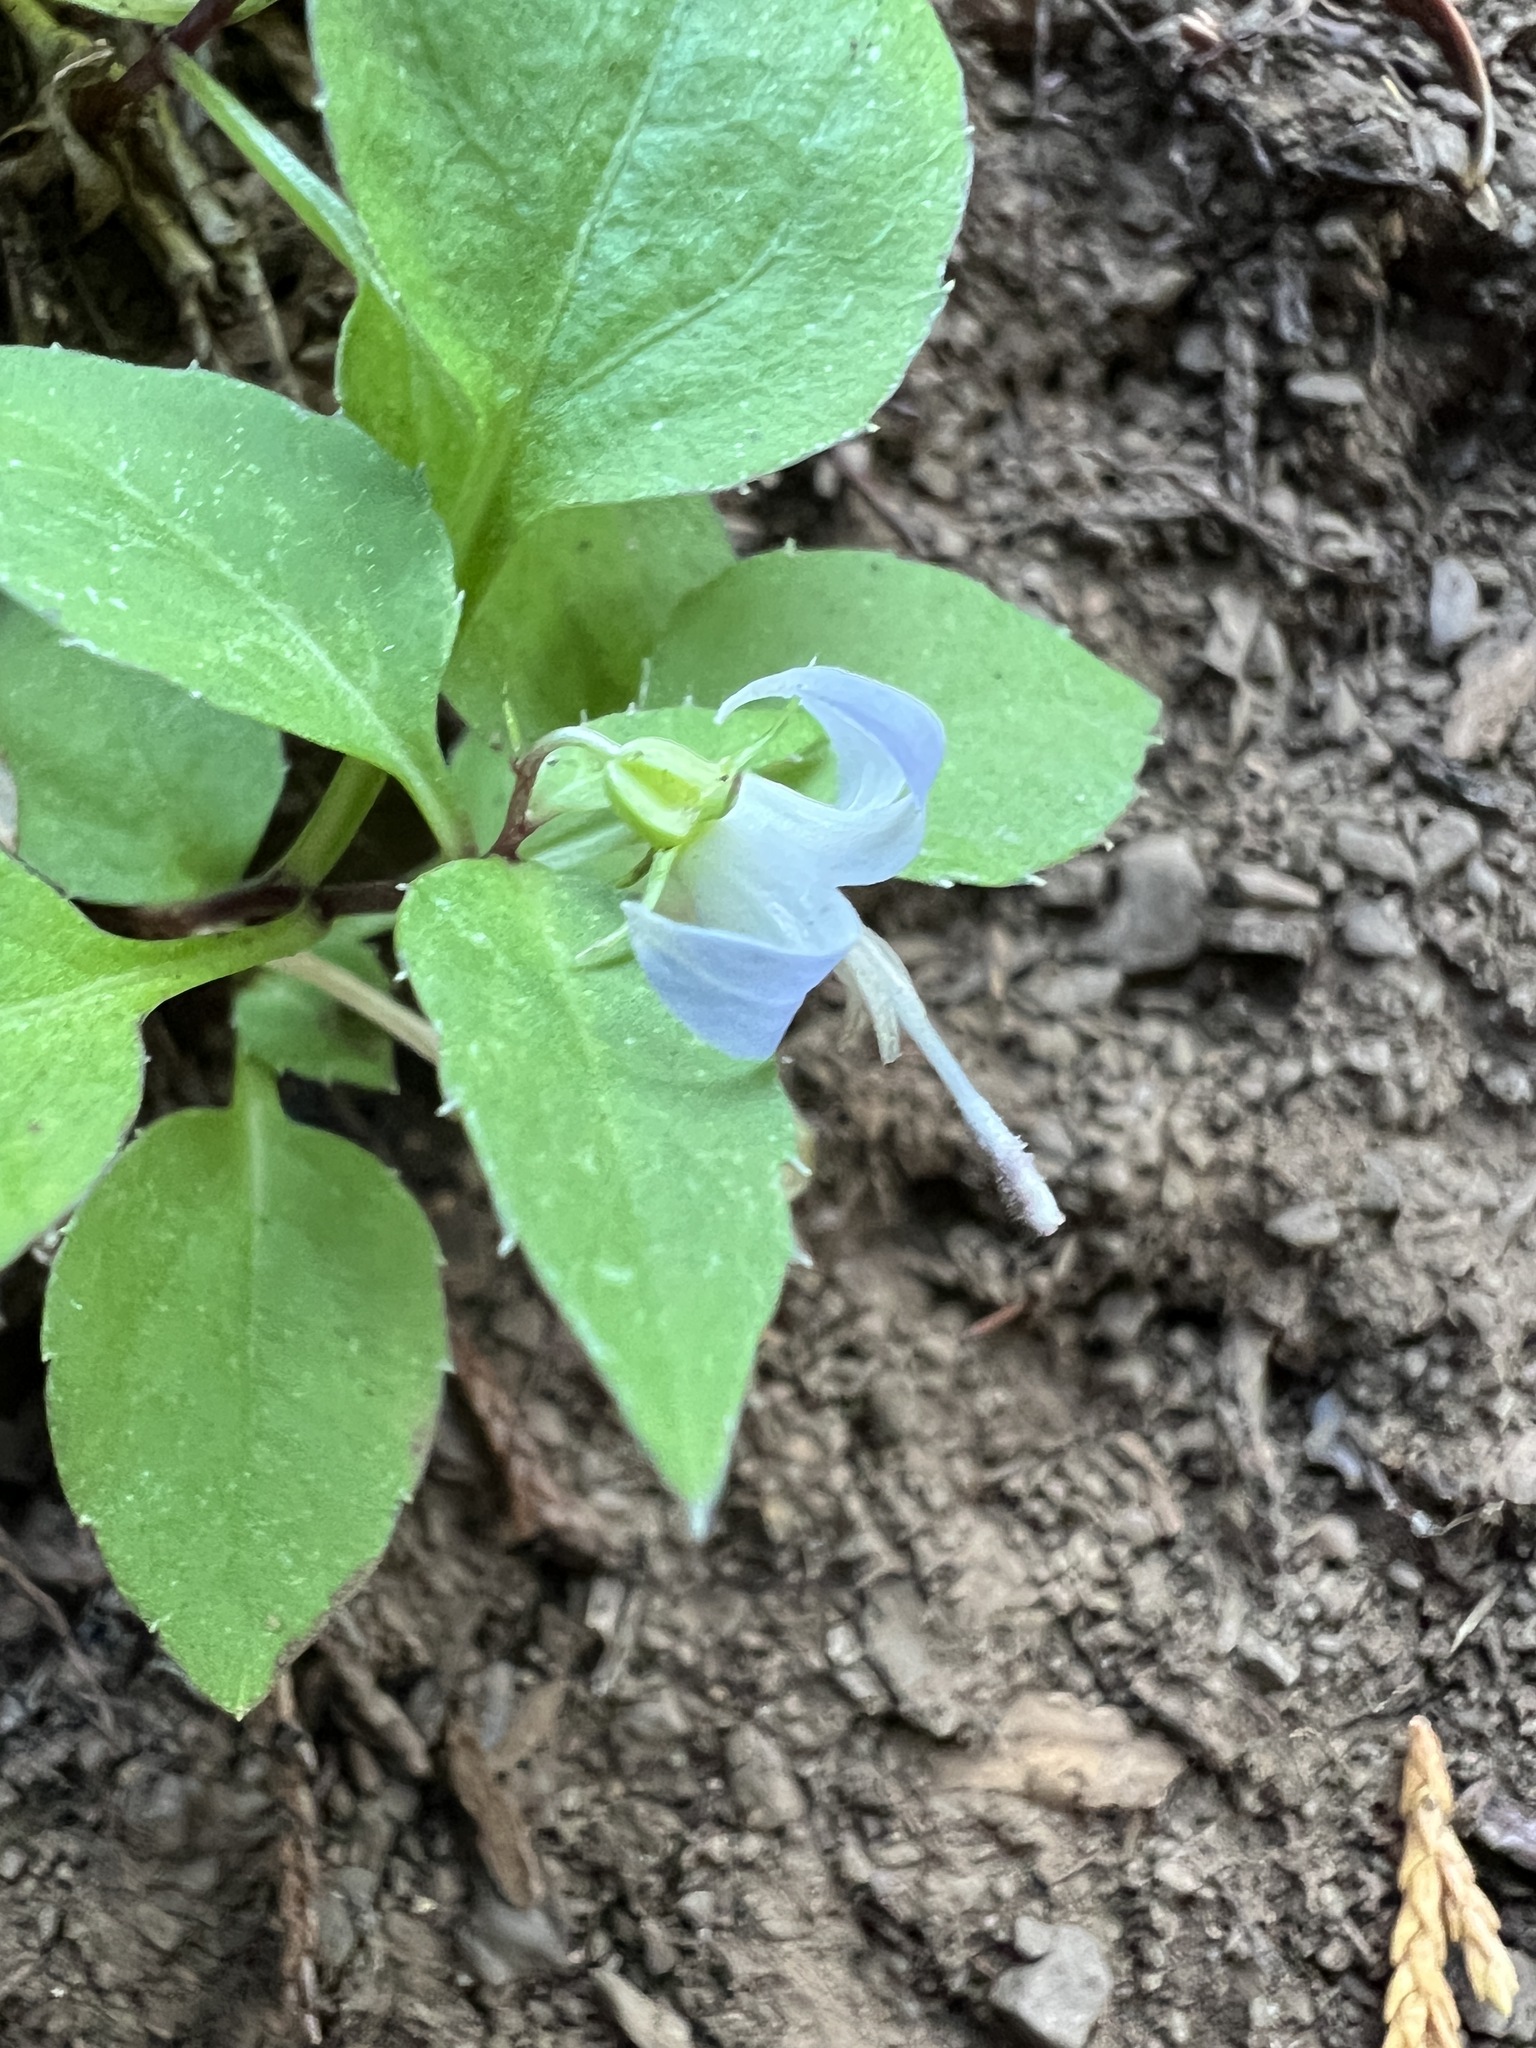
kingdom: Plantae
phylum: Tracheophyta
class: Magnoliopsida
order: Asterales
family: Campanulaceae
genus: Campanula
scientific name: Campanula scouleri
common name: Scouler's harebell
